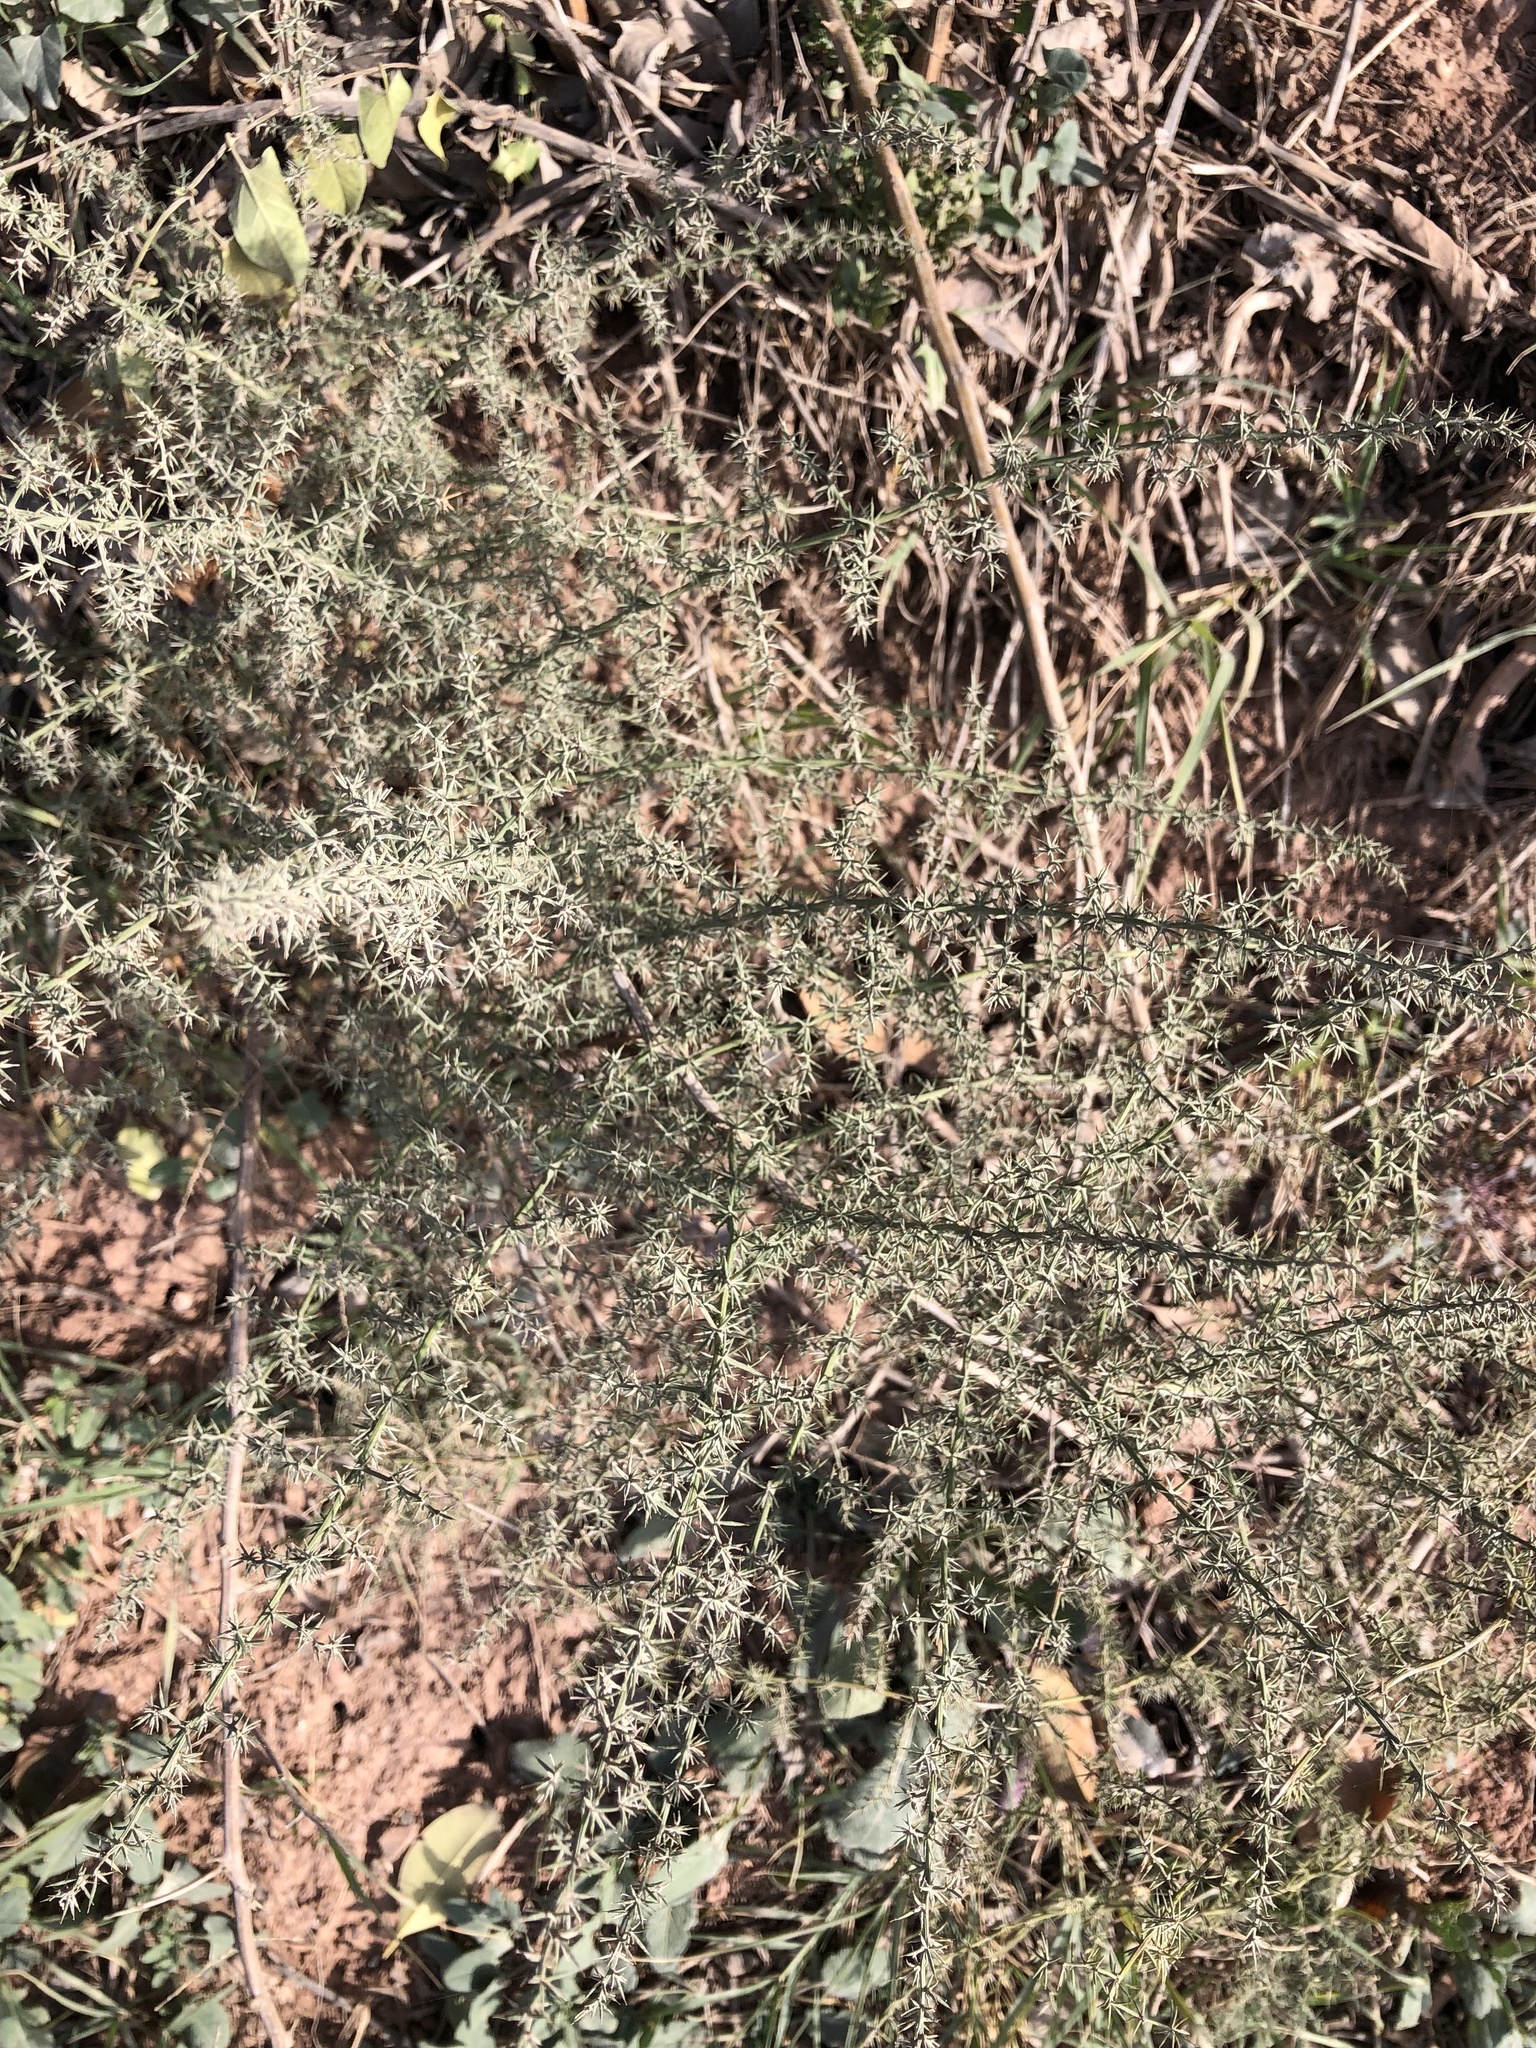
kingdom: Plantae
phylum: Tracheophyta
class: Liliopsida
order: Asparagales
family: Asparagaceae
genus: Asparagus
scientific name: Asparagus acutifolius
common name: Wild asparagus
